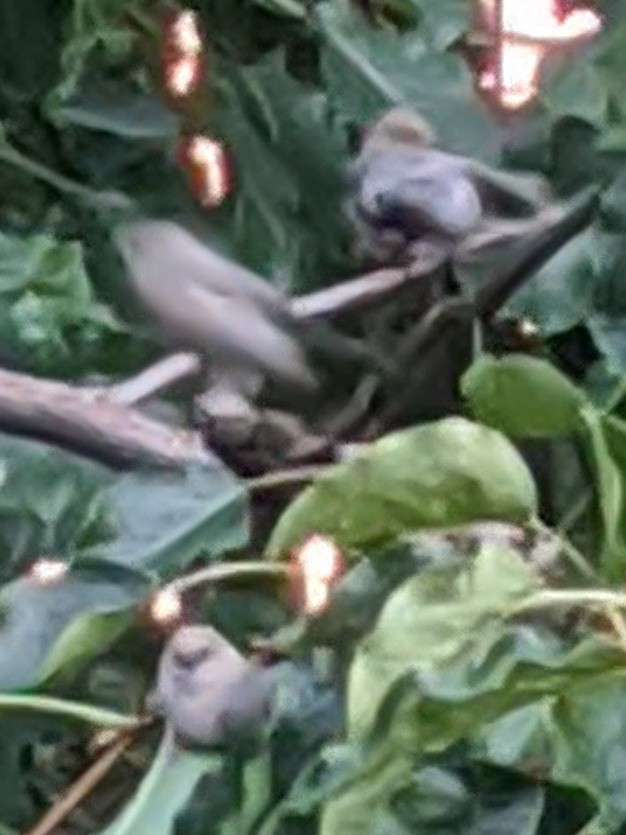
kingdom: Animalia
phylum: Chordata
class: Aves
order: Passeriformes
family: Aegithalidae
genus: Psaltriparus
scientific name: Psaltriparus minimus
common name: American bushtit
